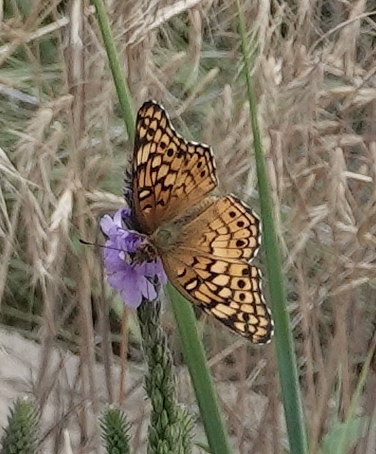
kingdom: Animalia
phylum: Arthropoda
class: Insecta
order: Lepidoptera
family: Nymphalidae
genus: Euptoieta
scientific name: Euptoieta claudia
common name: Variegated fritillary
